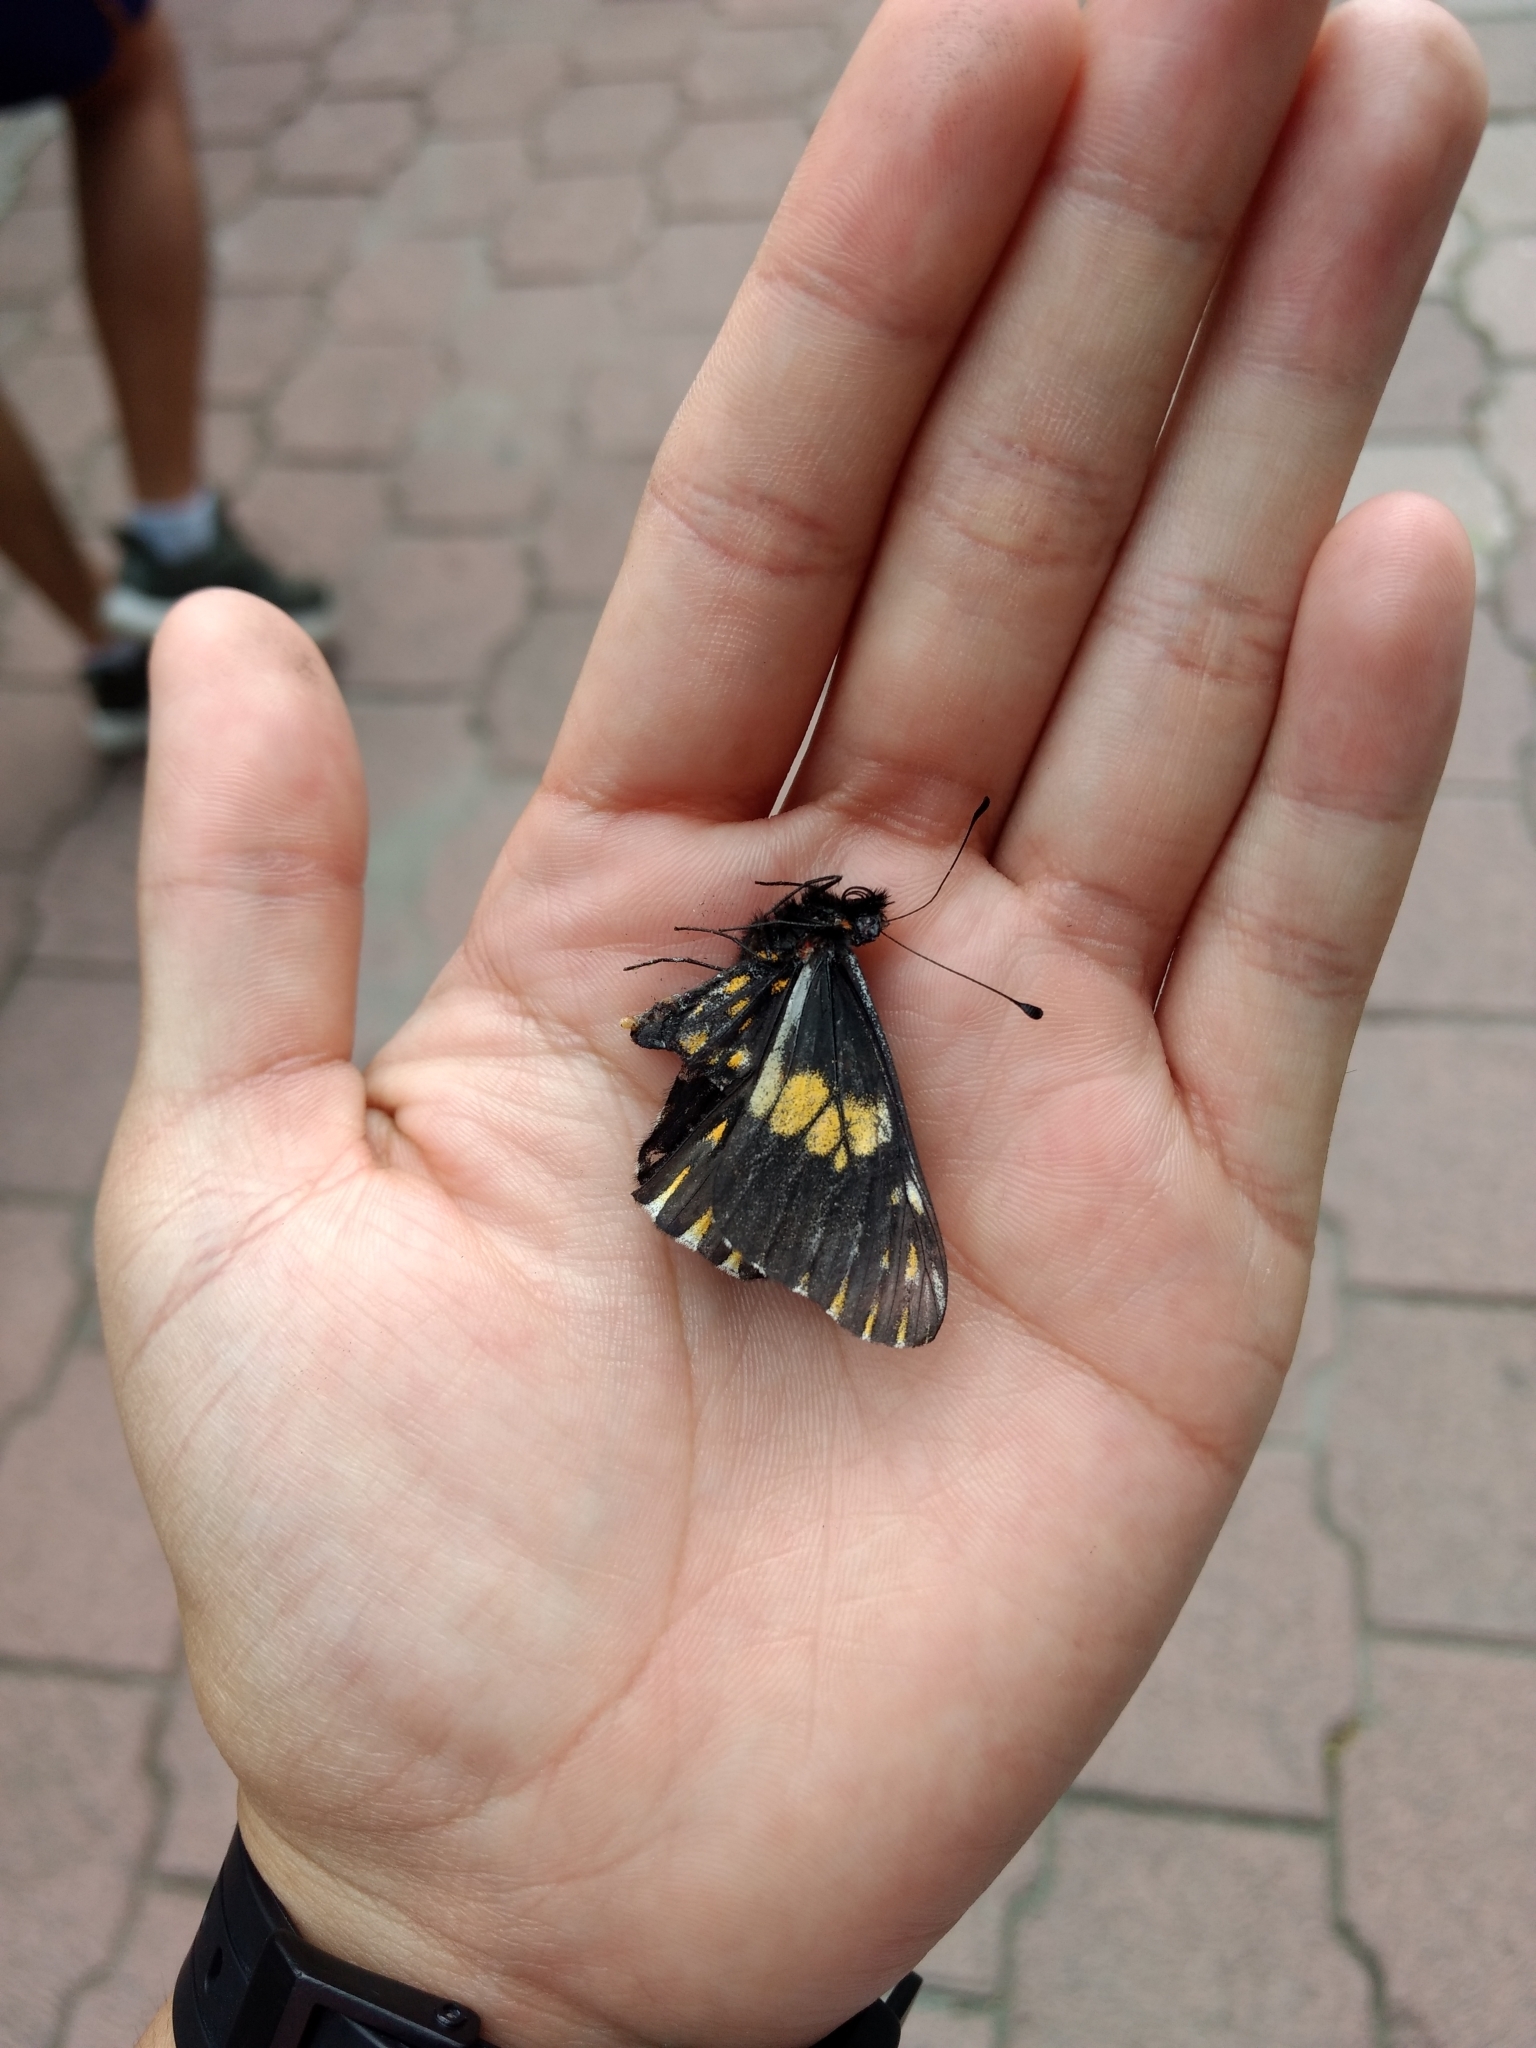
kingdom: Animalia
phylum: Arthropoda
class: Insecta
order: Lepidoptera
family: Pieridae
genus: Archonias
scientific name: Archonias teutila
